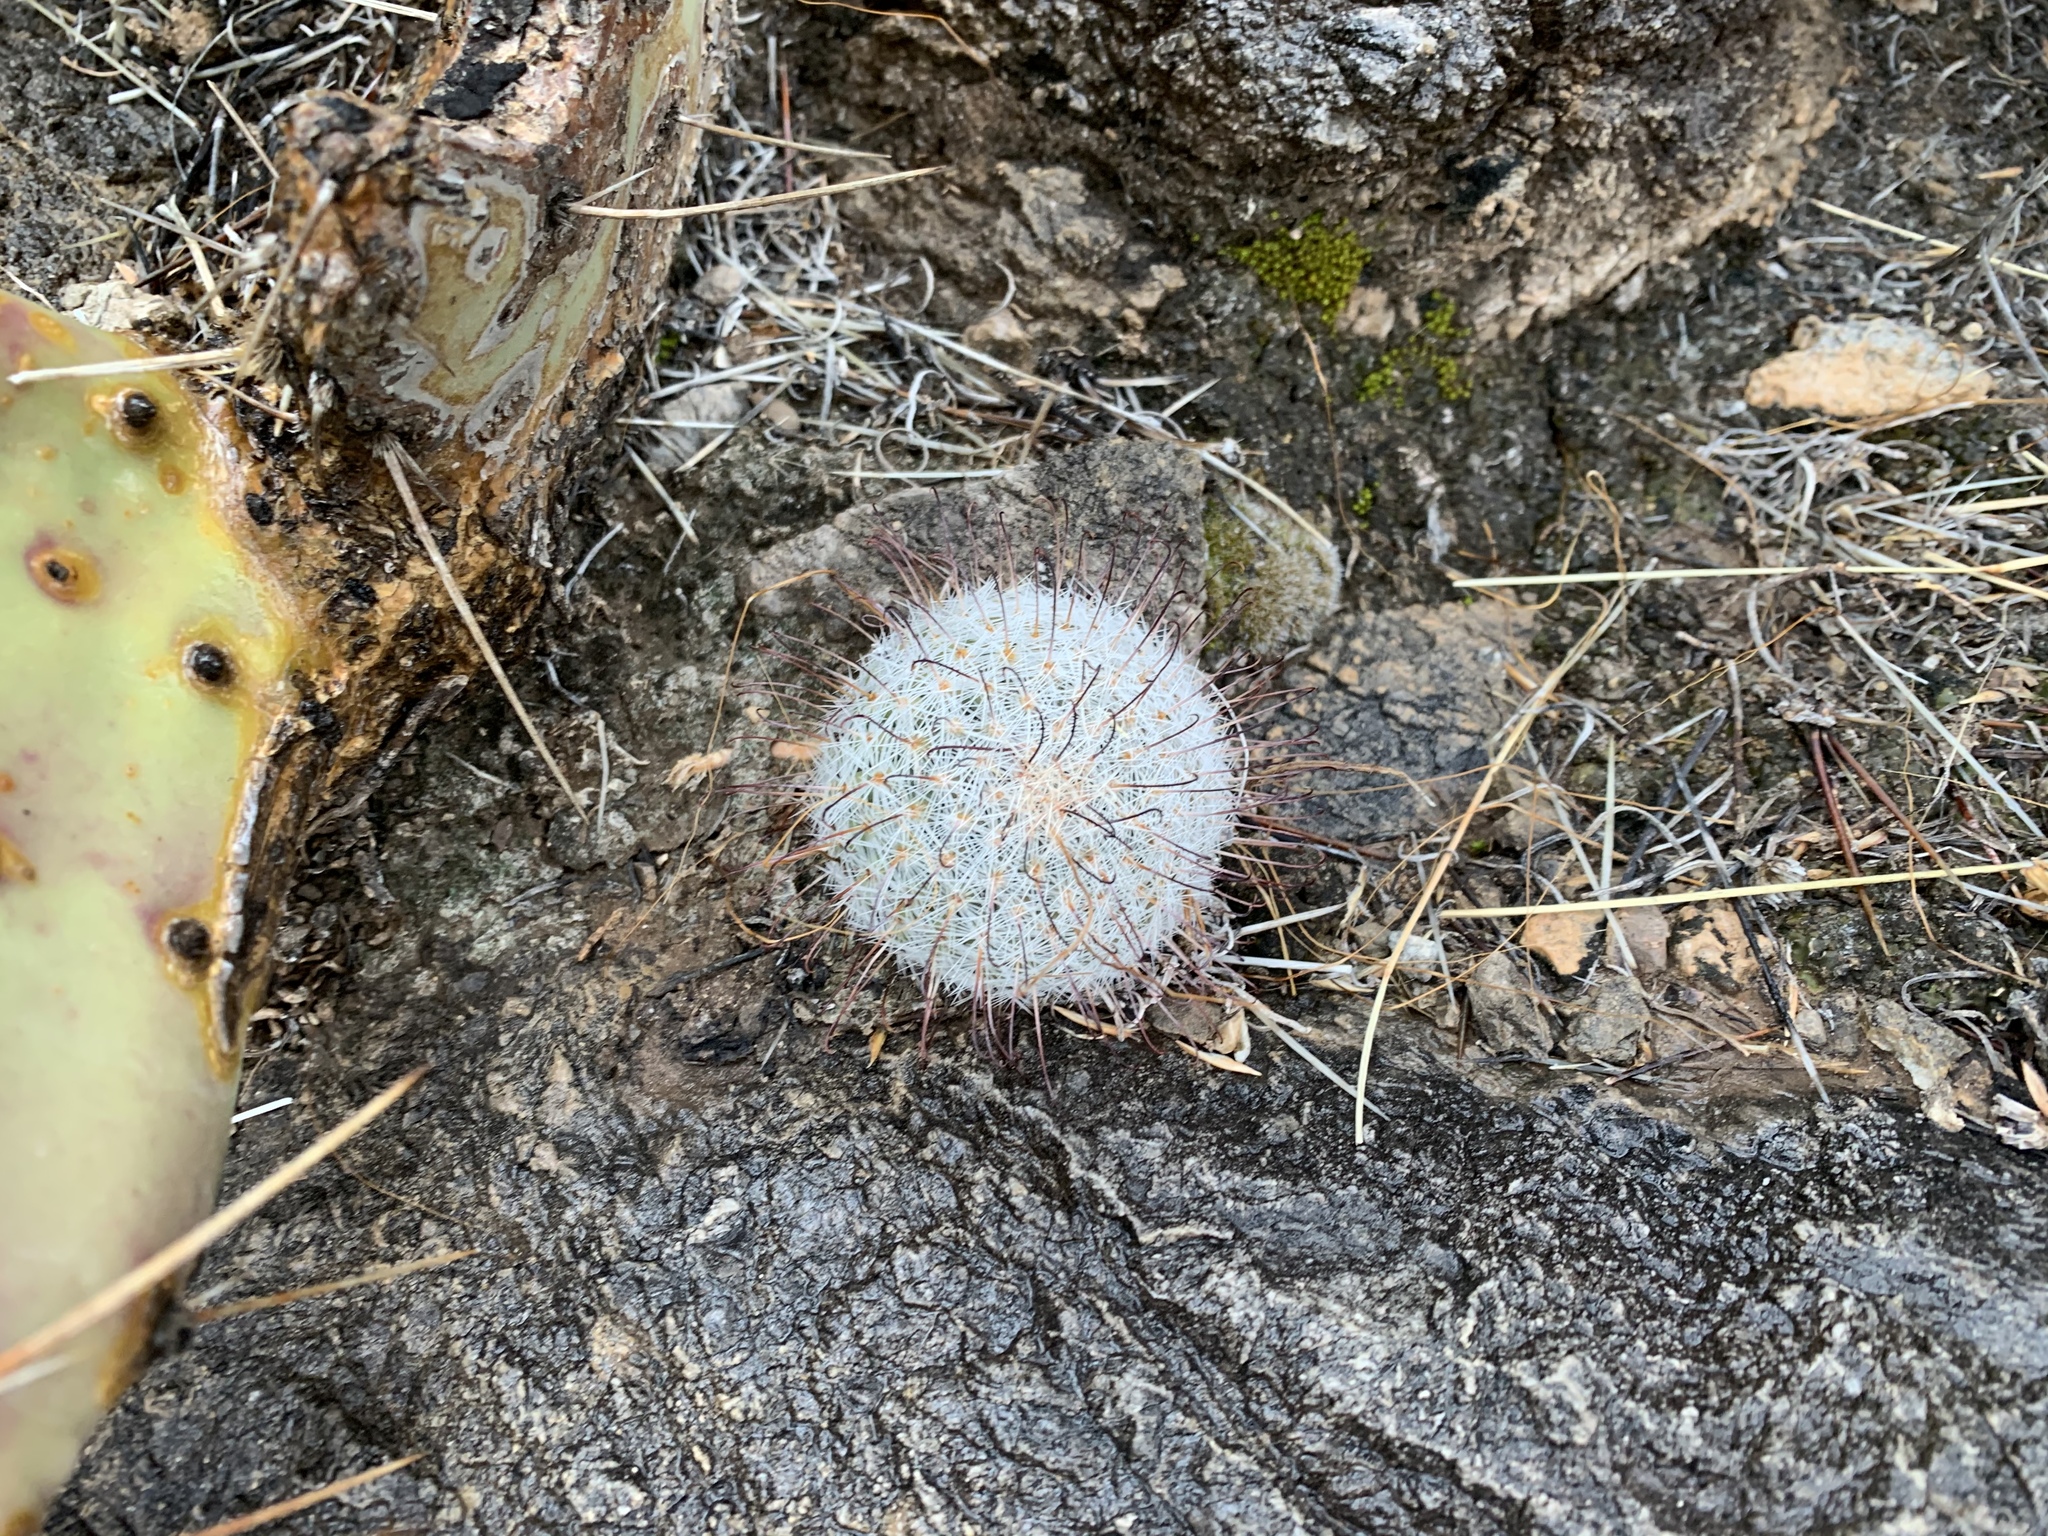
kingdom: Plantae
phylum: Tracheophyta
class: Magnoliopsida
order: Caryophyllales
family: Cactaceae
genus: Cochemiea
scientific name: Cochemiea grahamii
